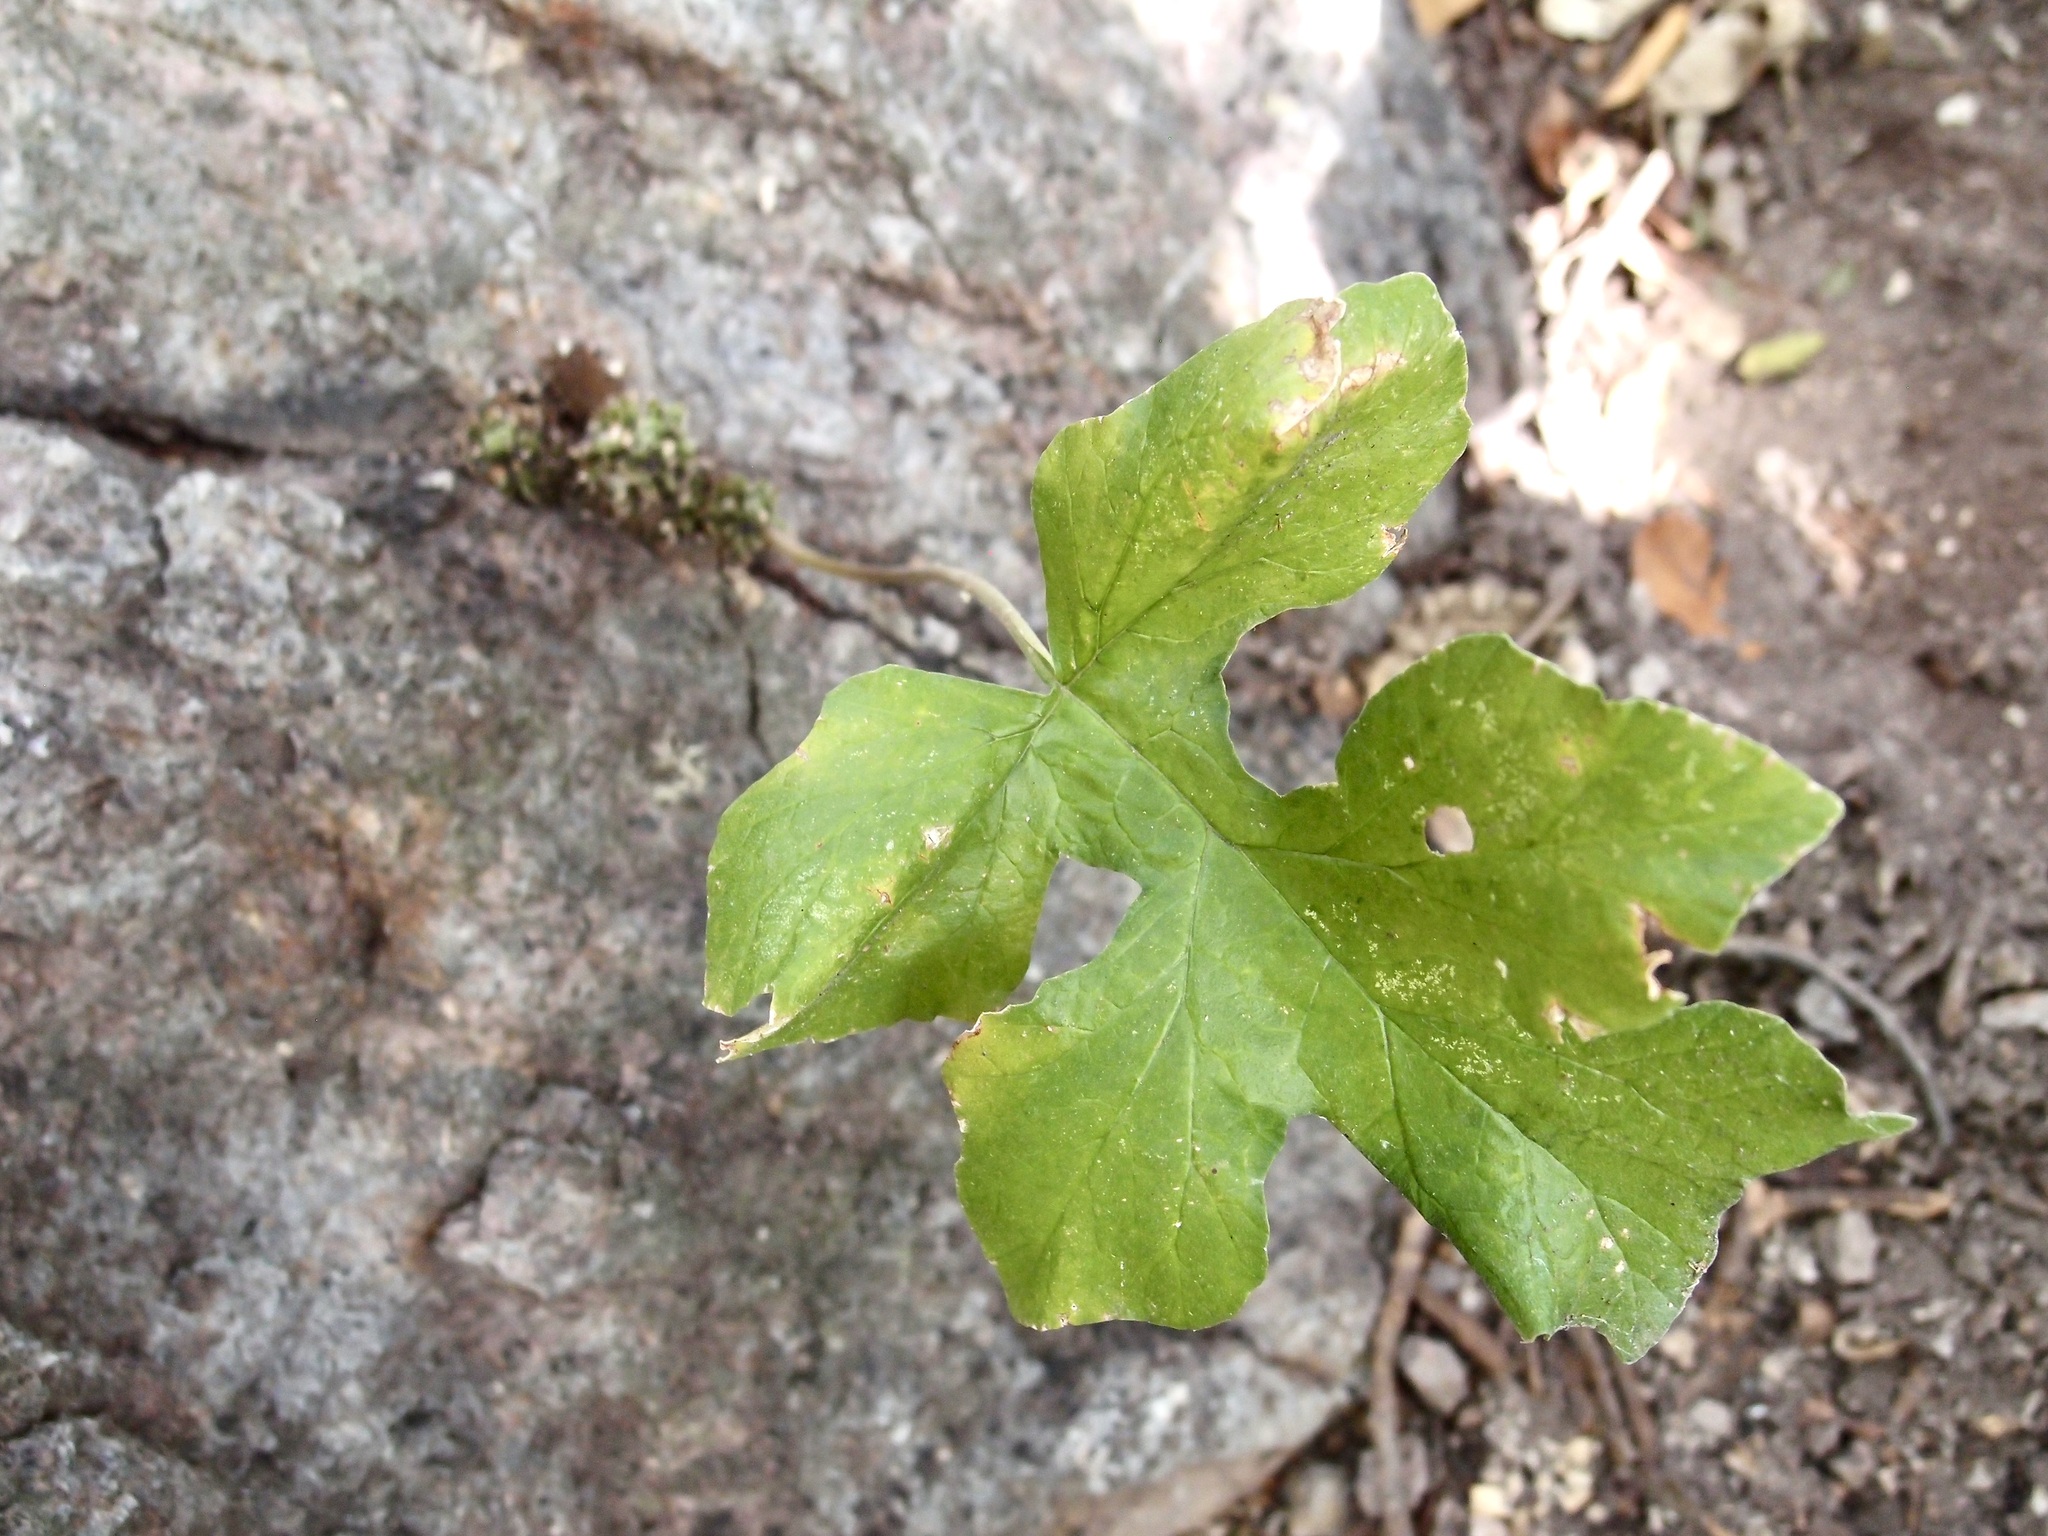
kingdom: Plantae
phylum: Tracheophyta
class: Magnoliopsida
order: Rosales
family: Moraceae
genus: Dorstenia
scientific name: Dorstenia drakena
